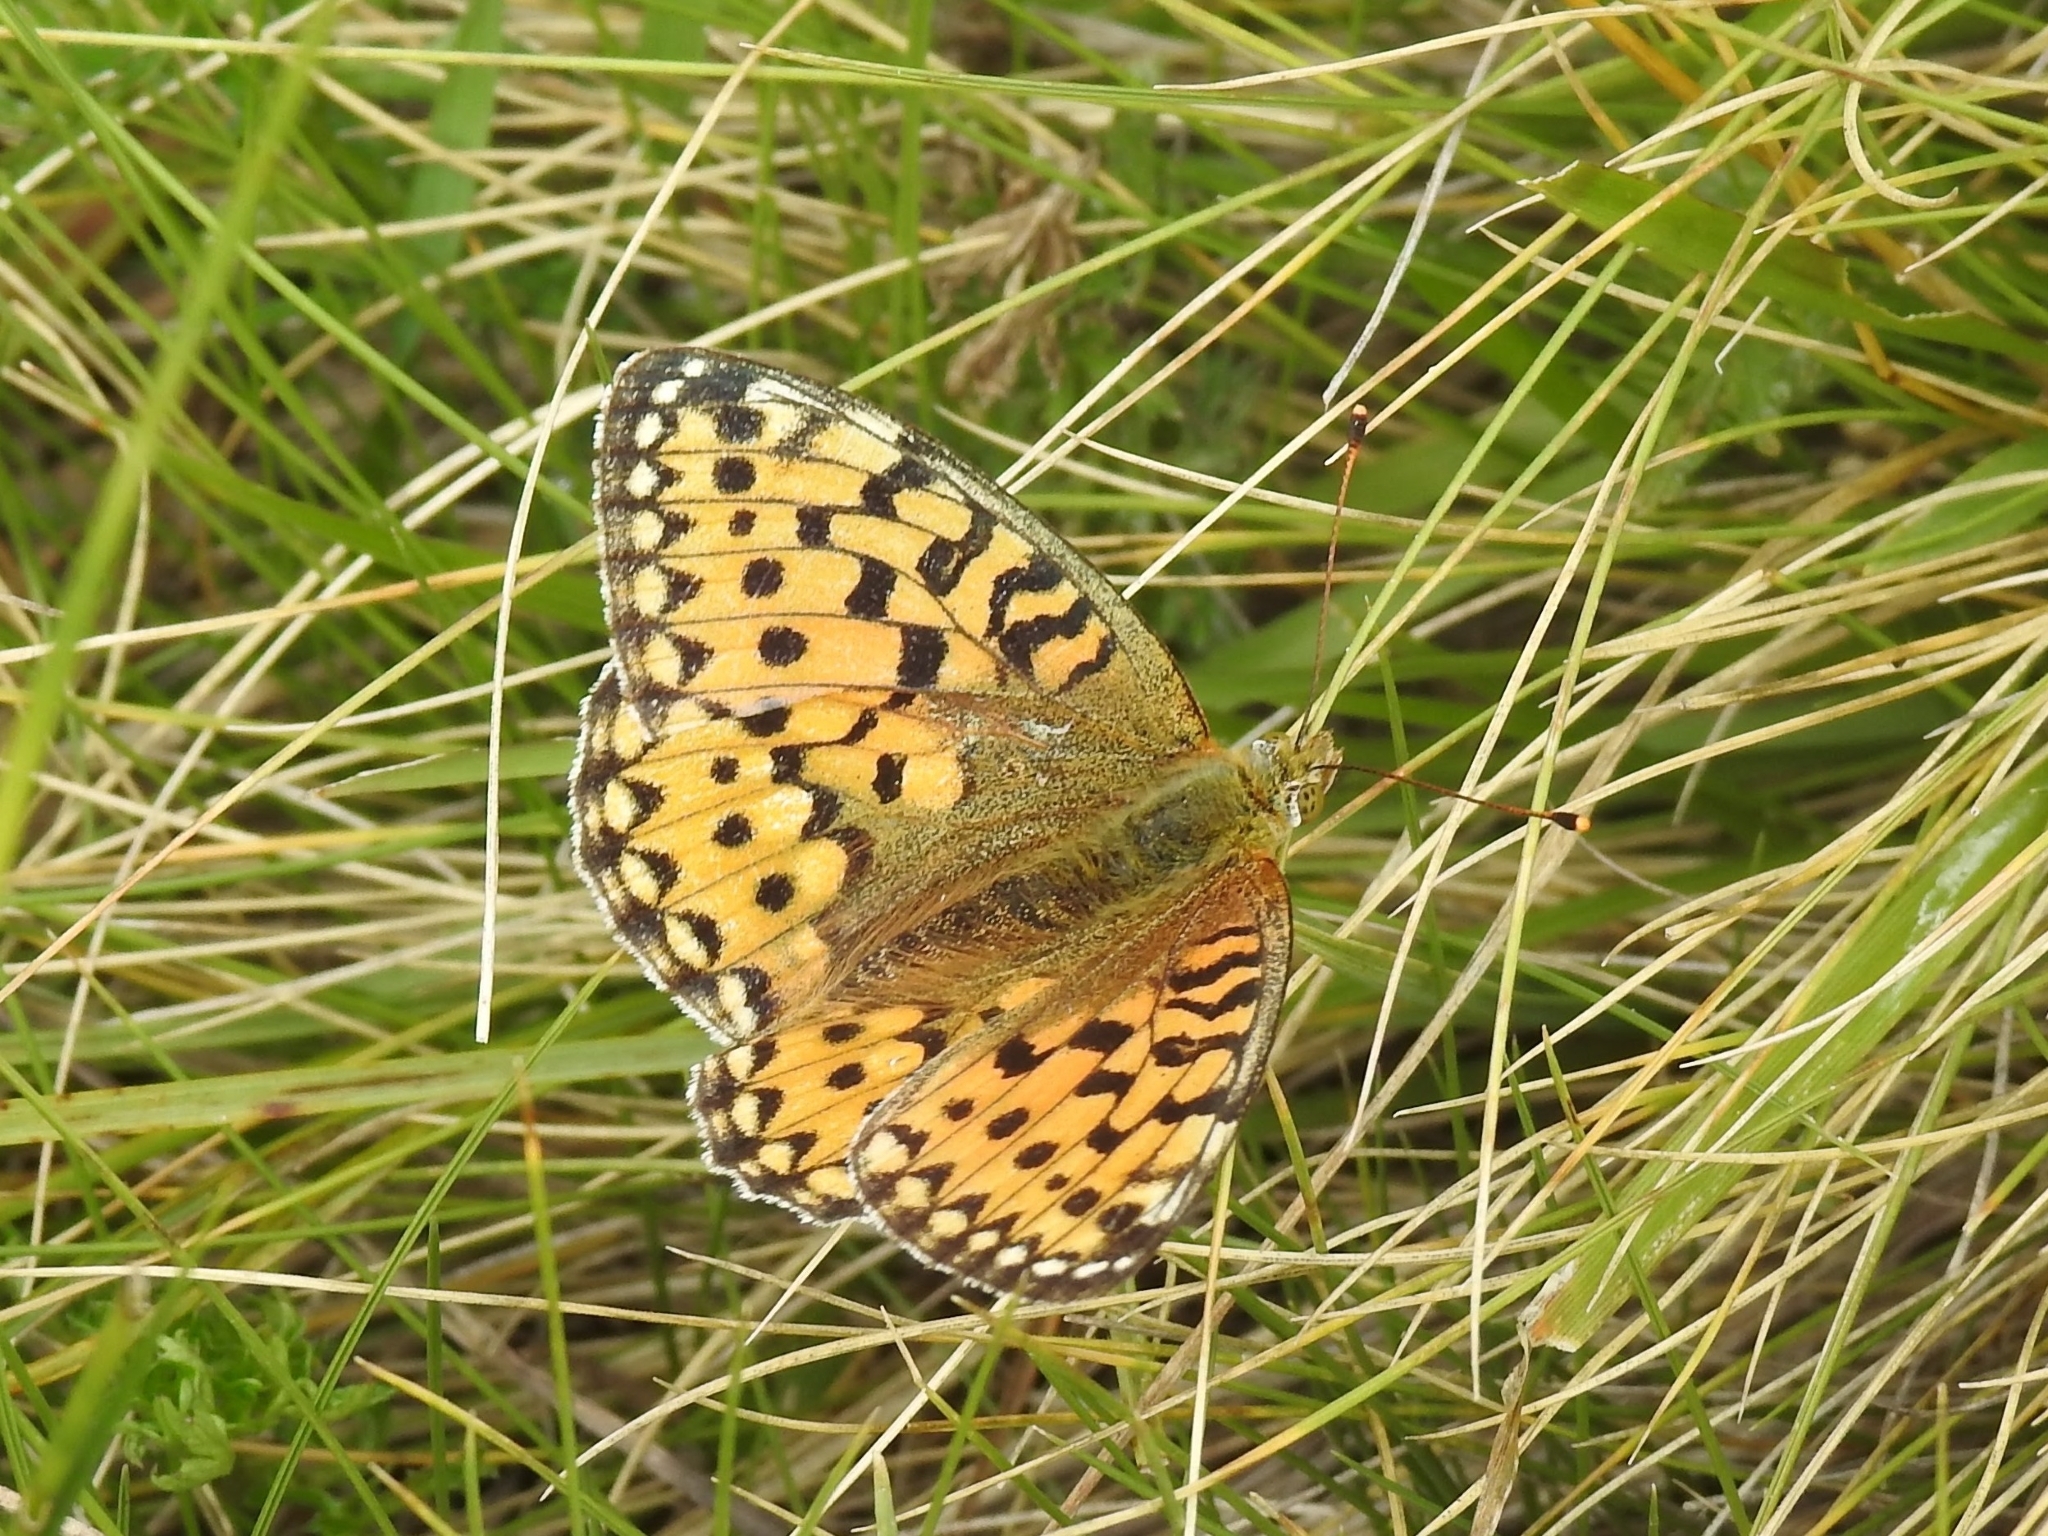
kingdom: Animalia
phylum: Arthropoda
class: Insecta
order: Lepidoptera
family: Nymphalidae
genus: Speyeria
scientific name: Speyeria aglaja
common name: Dark green fritillary
